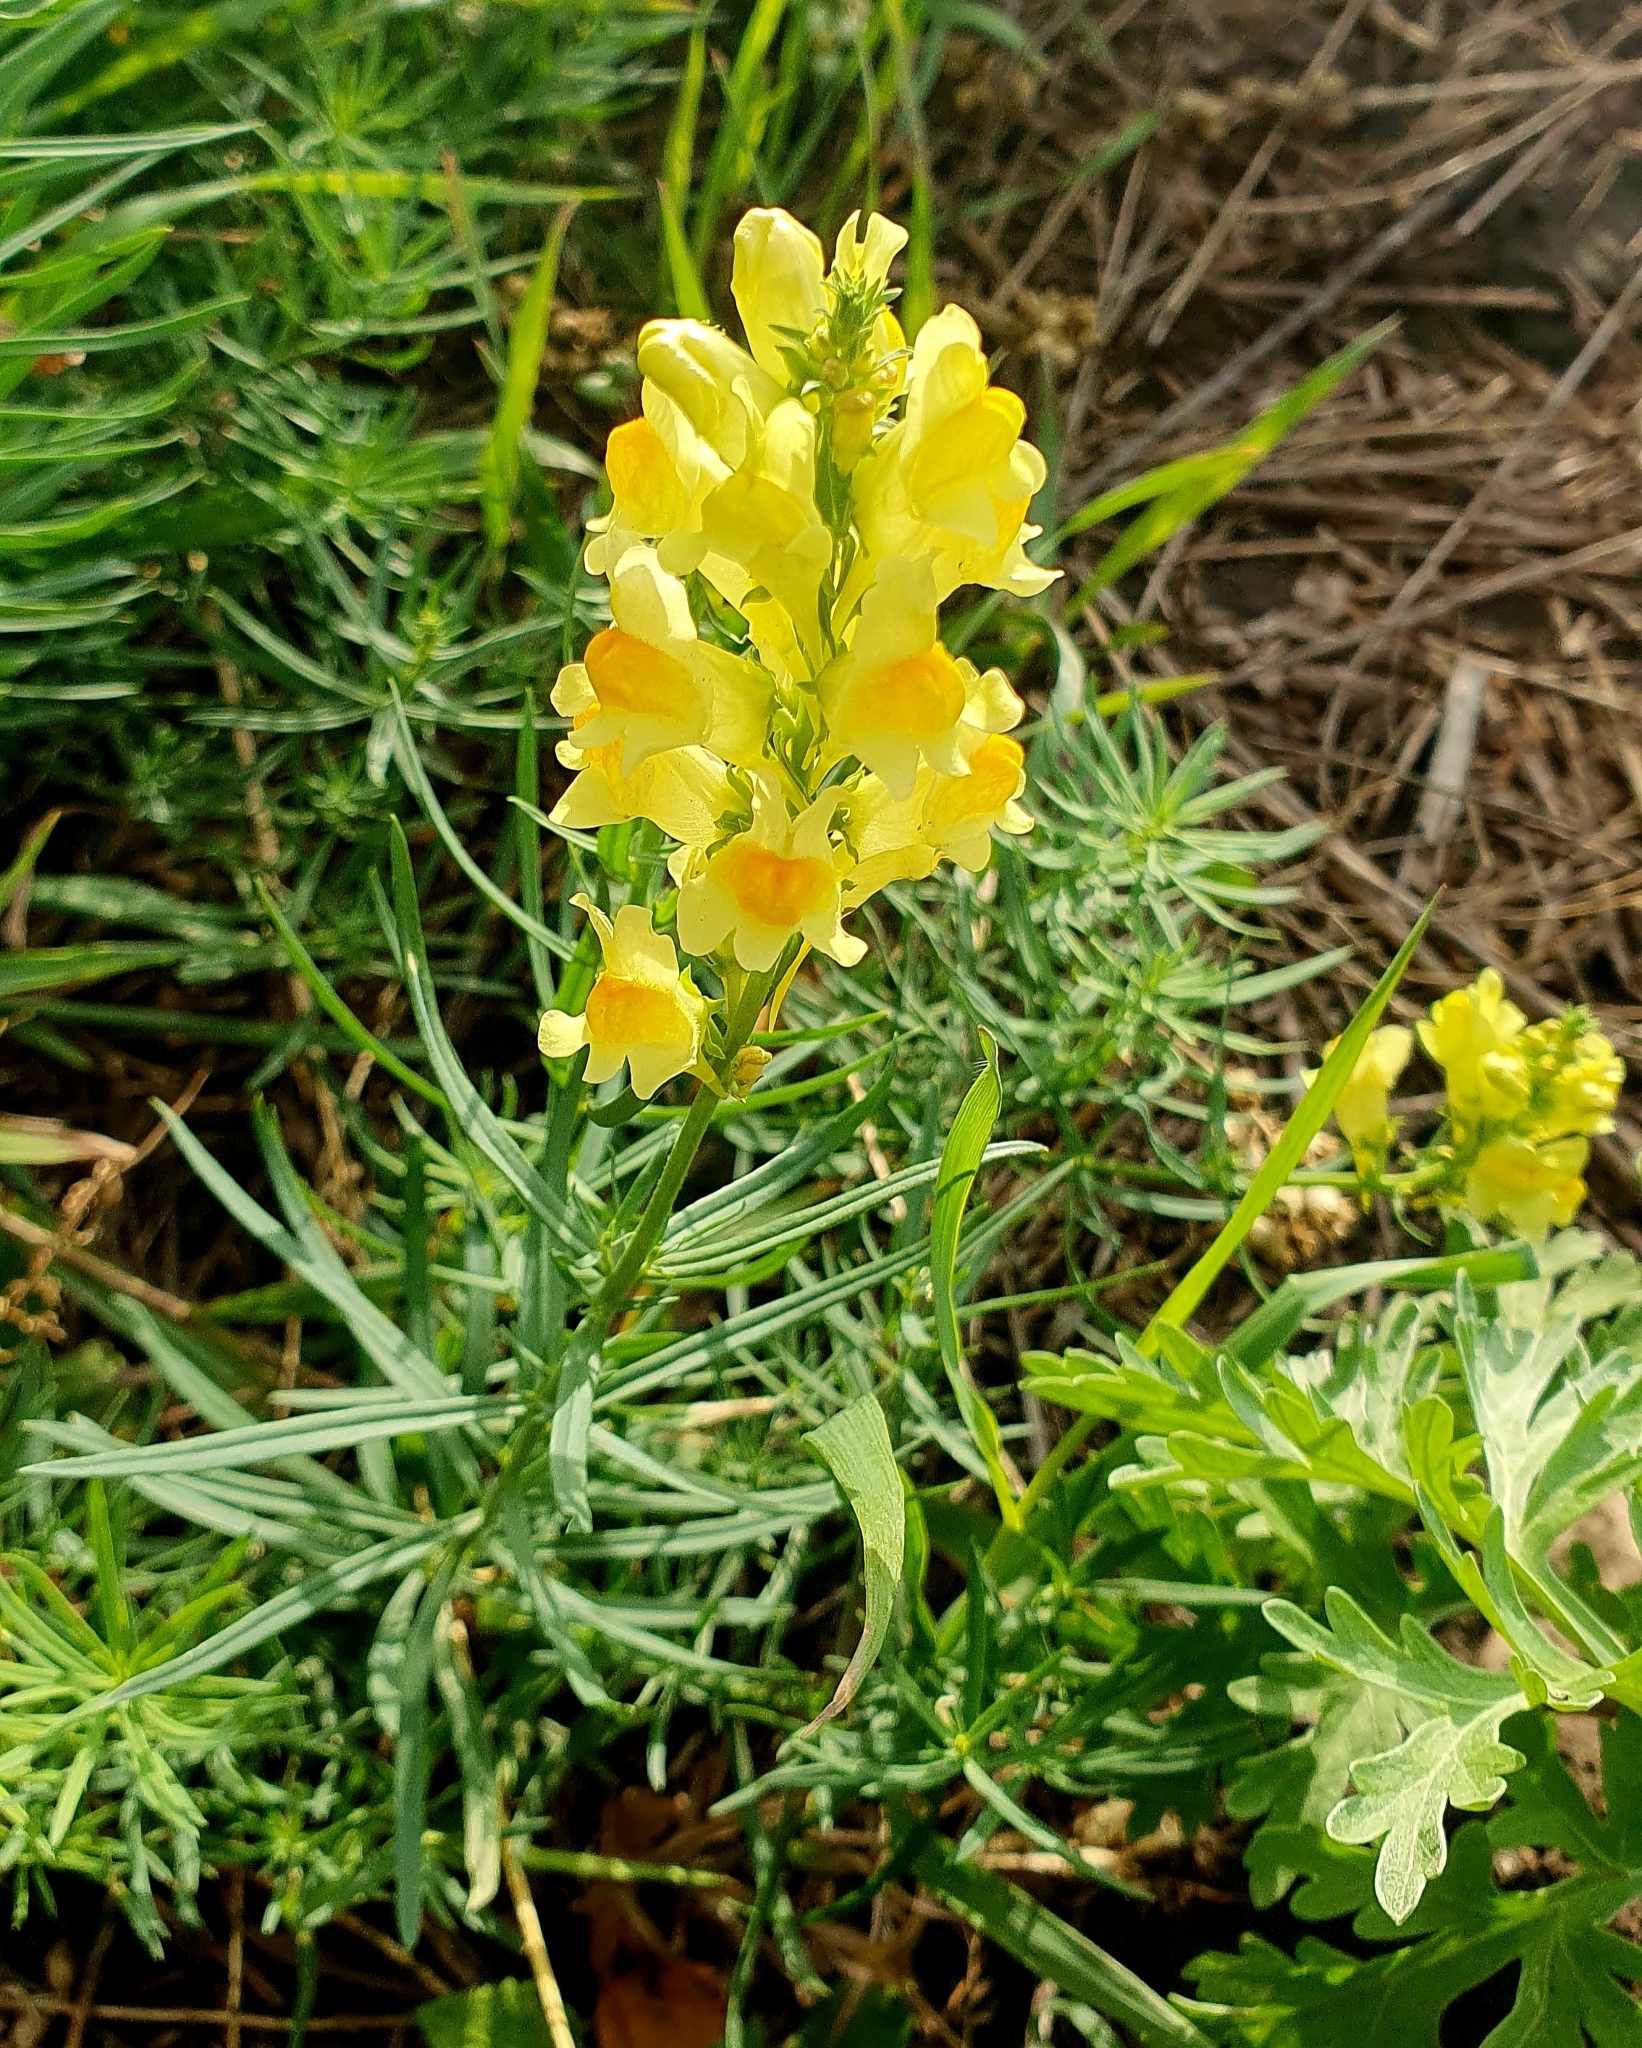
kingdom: Plantae
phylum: Tracheophyta
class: Magnoliopsida
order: Lamiales
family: Plantaginaceae
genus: Linaria
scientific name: Linaria vulgaris
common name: Butter and eggs
